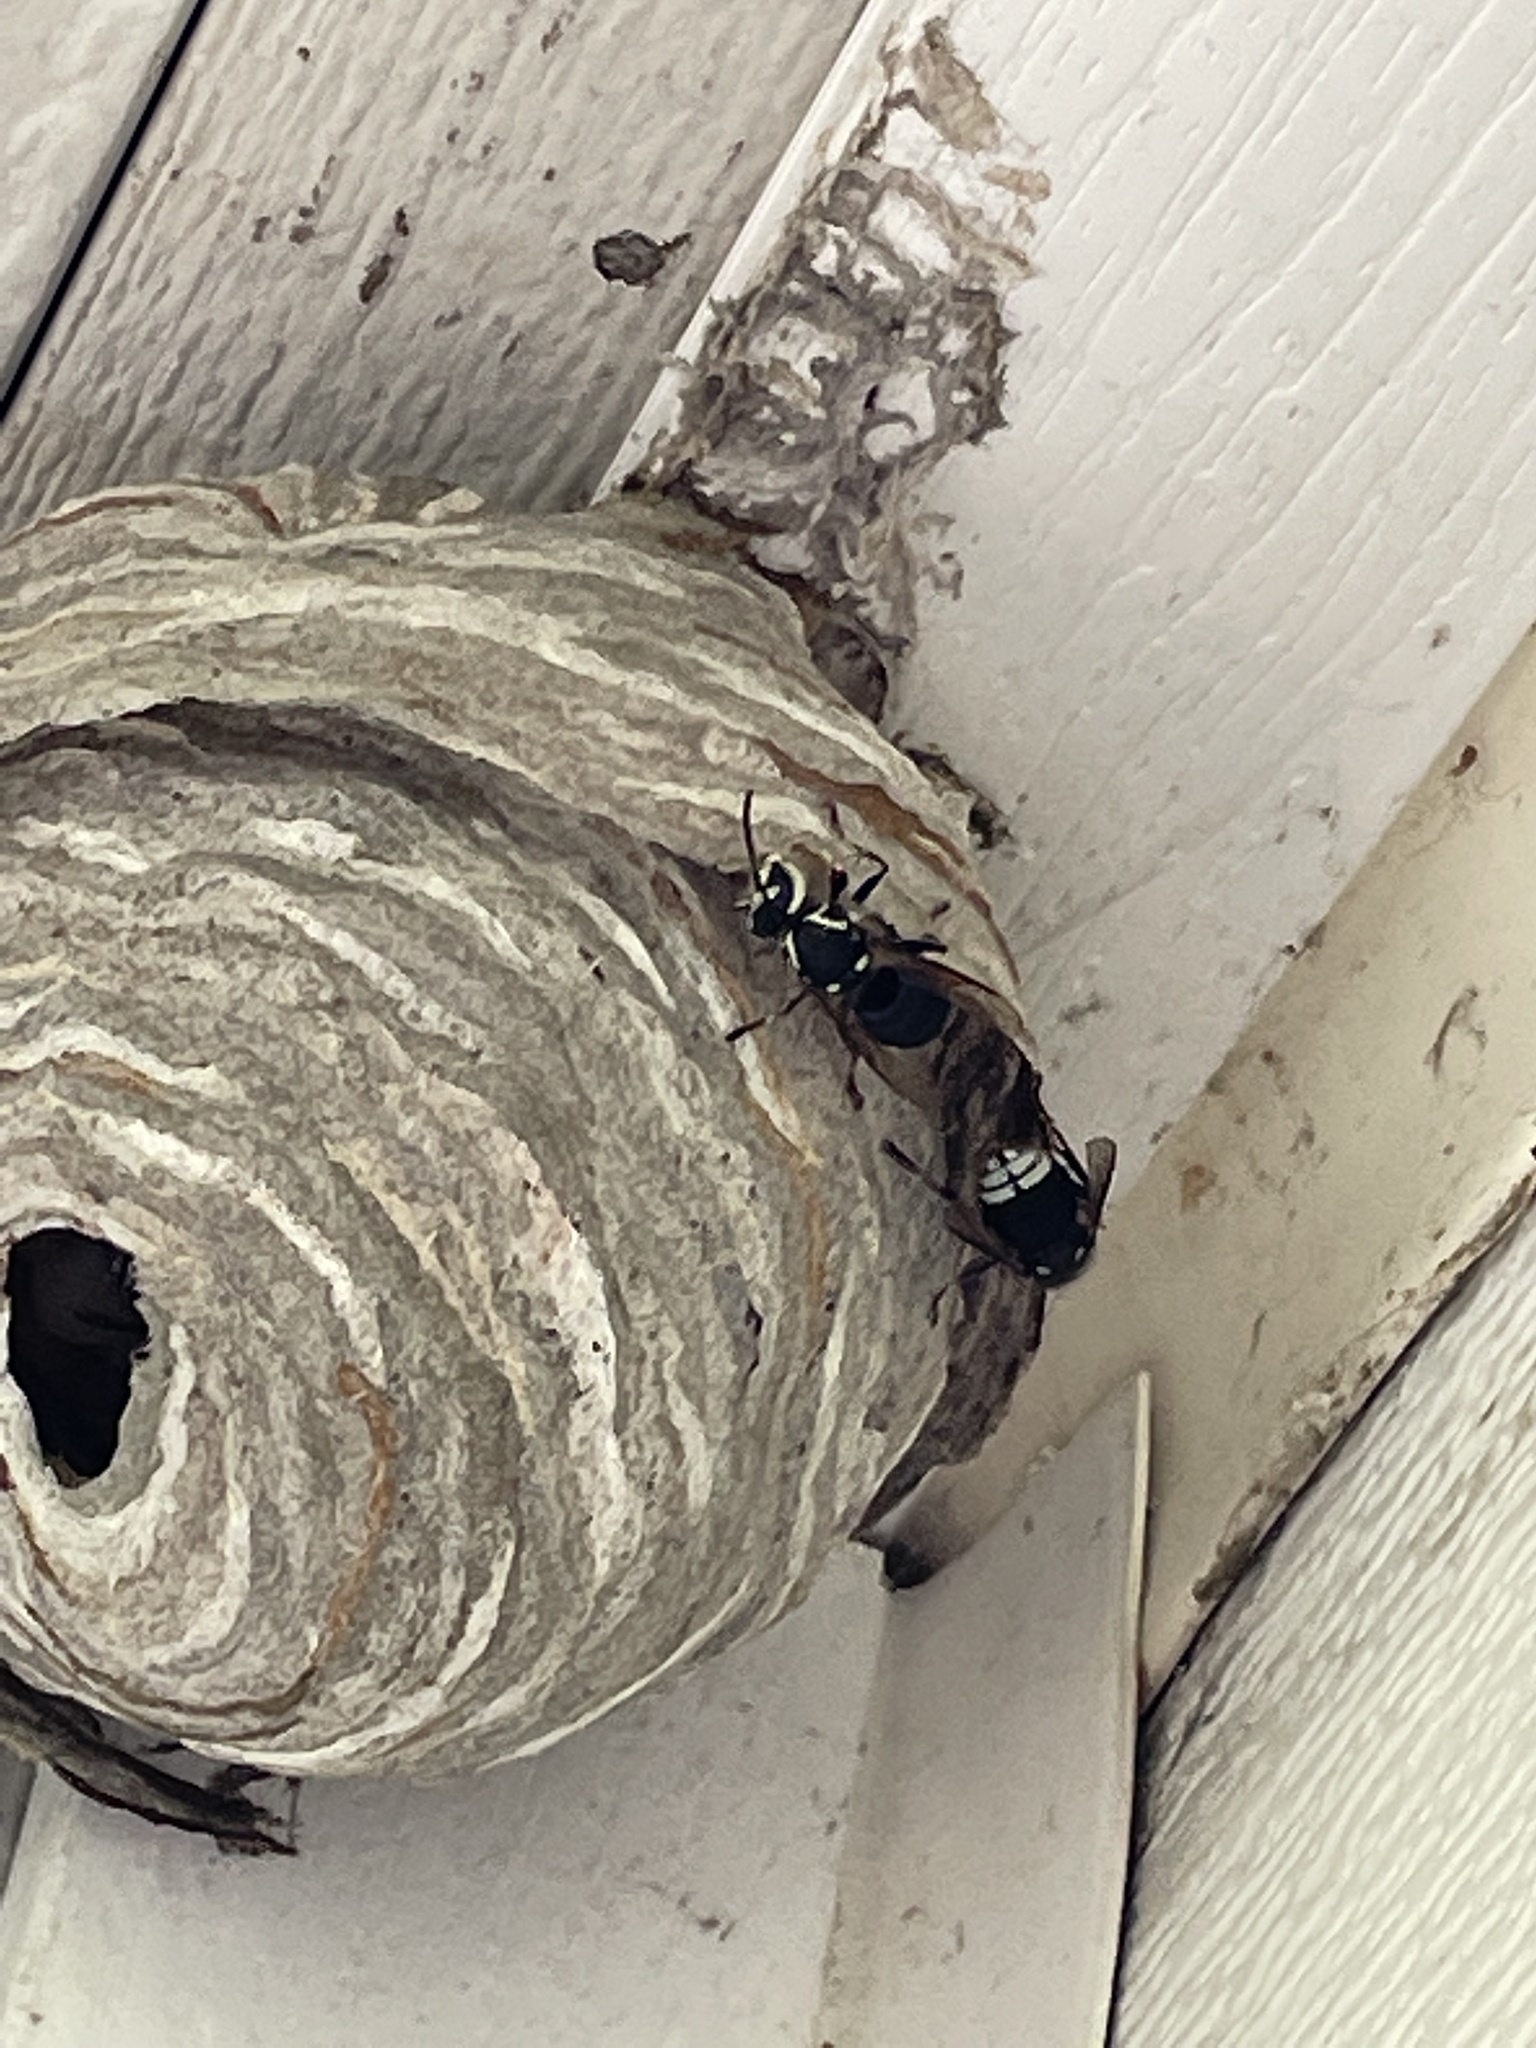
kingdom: Animalia
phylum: Arthropoda
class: Insecta
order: Hymenoptera
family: Vespidae
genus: Dolichovespula
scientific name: Dolichovespula maculata
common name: Bald-faced hornet
